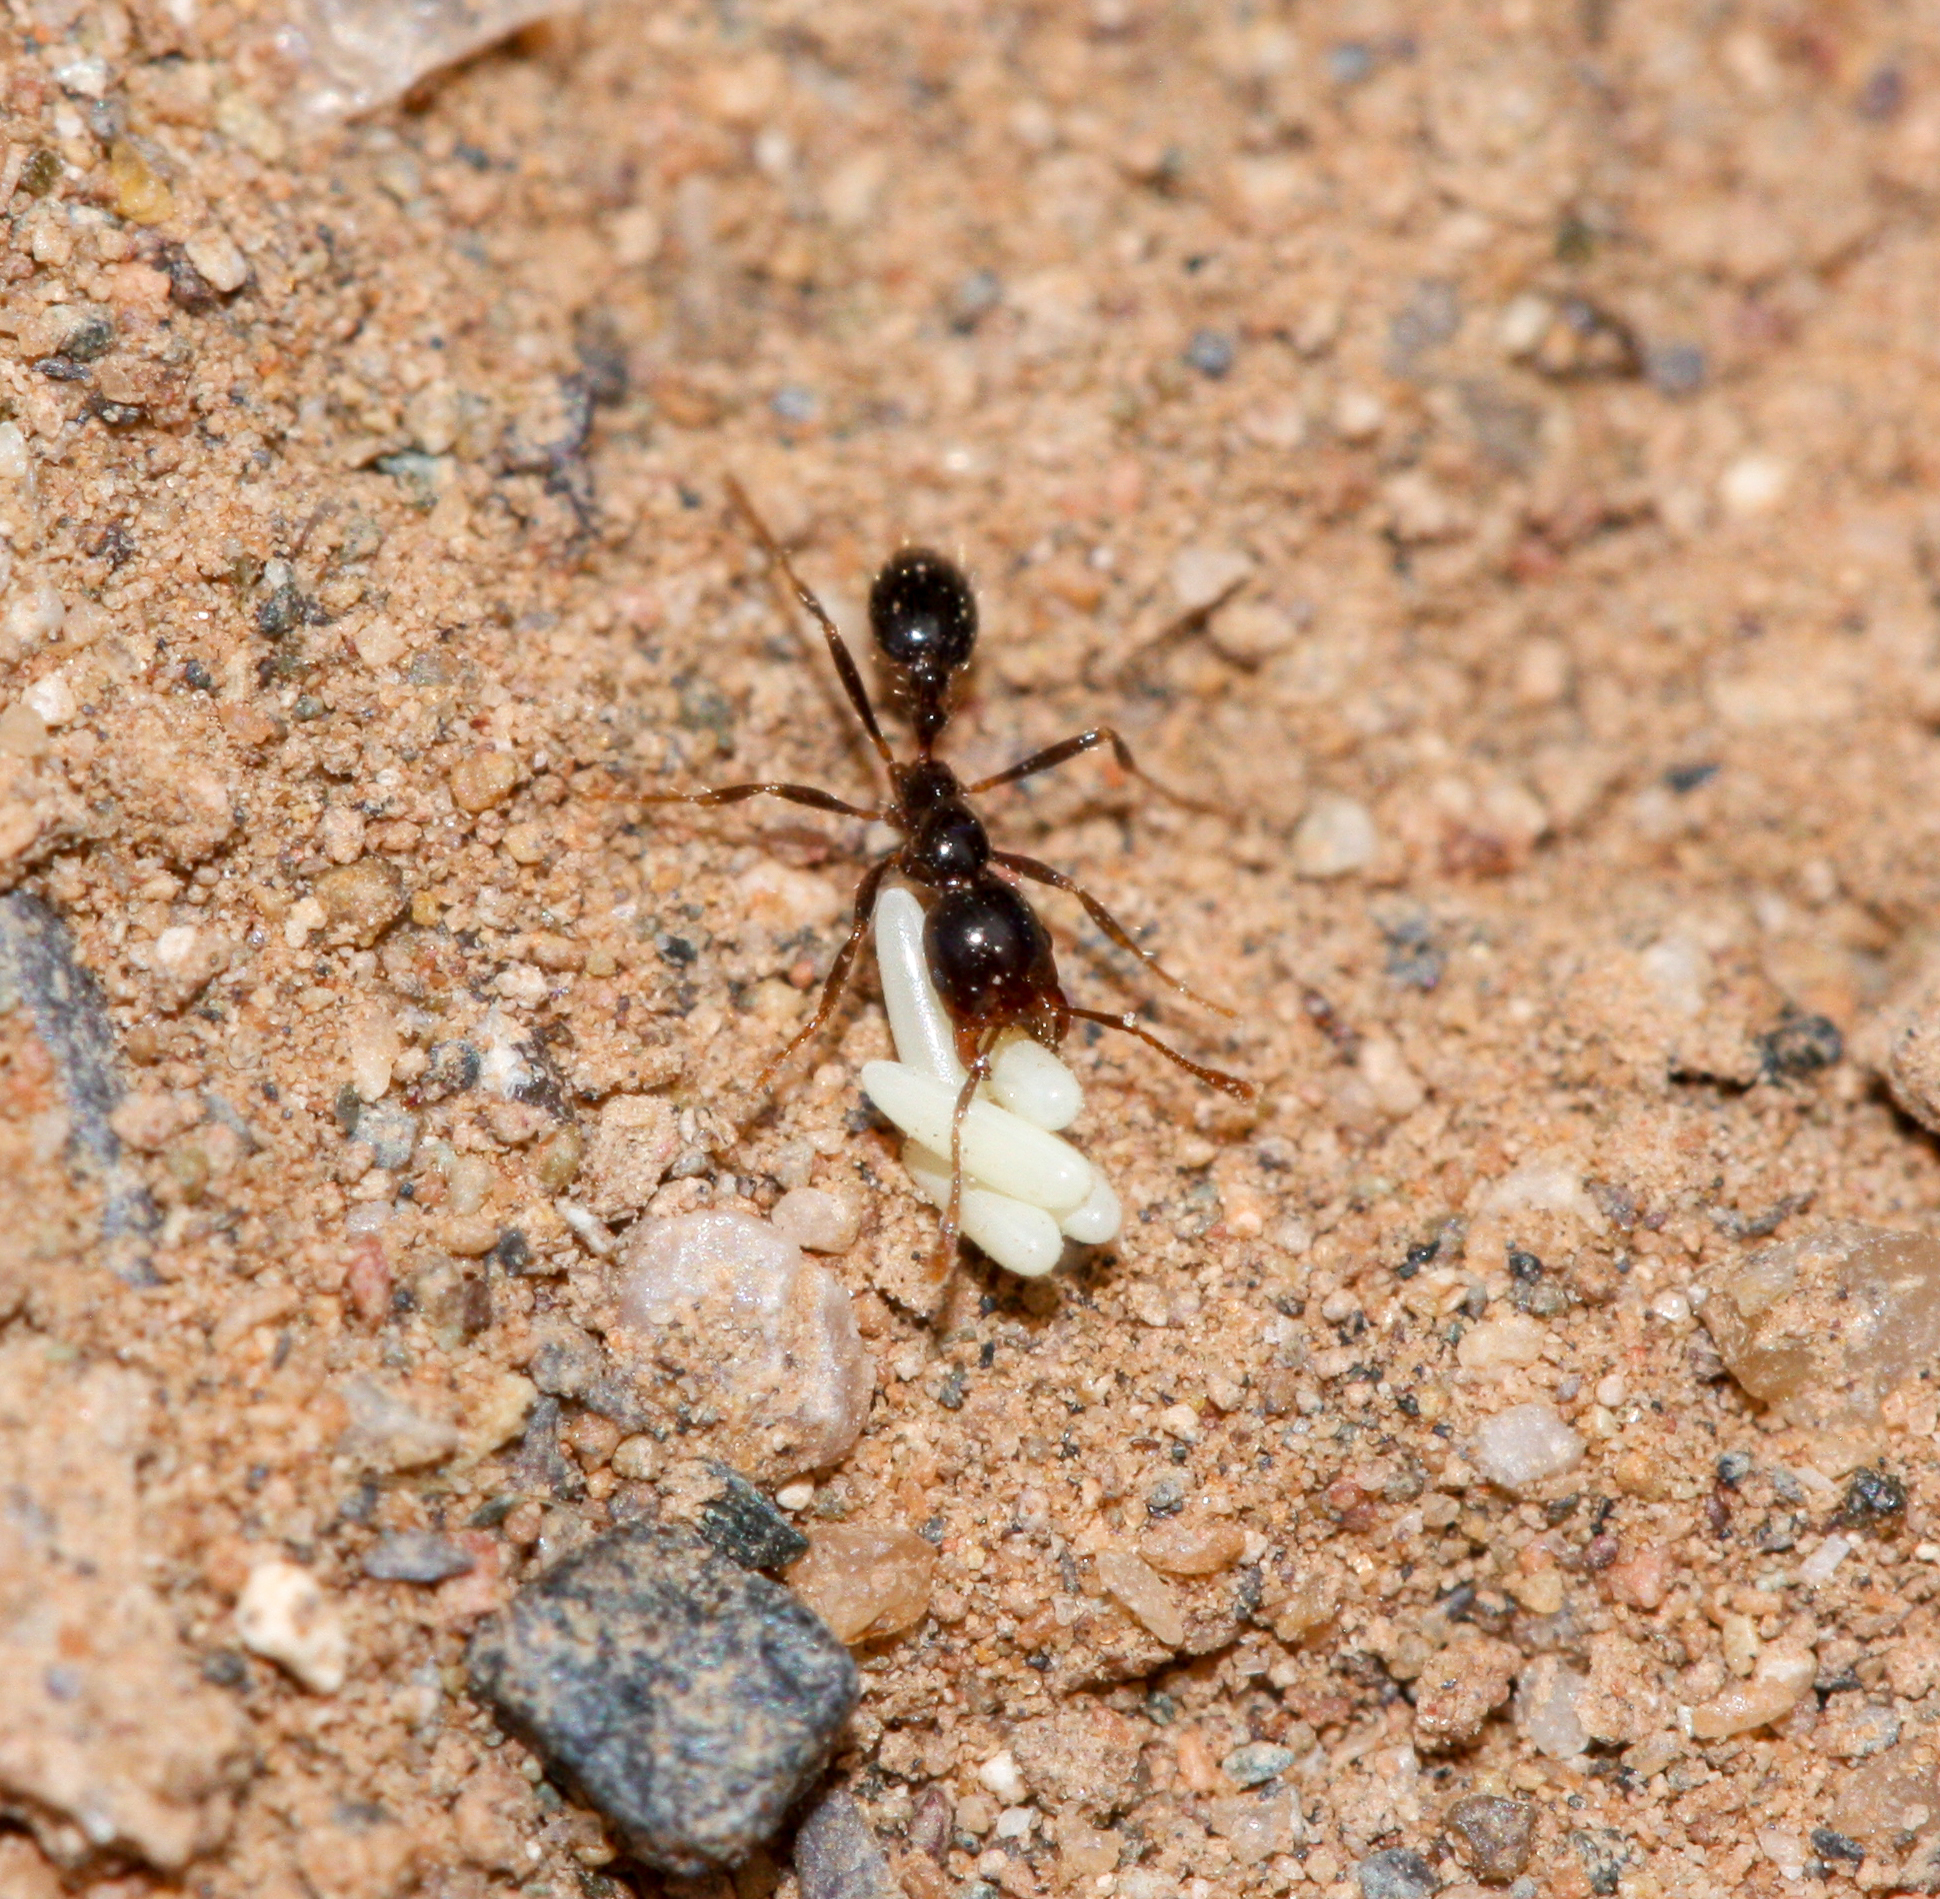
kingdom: Animalia
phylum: Arthropoda
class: Insecta
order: Hymenoptera
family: Formicidae
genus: Solenopsis
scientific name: Solenopsis xyloni
